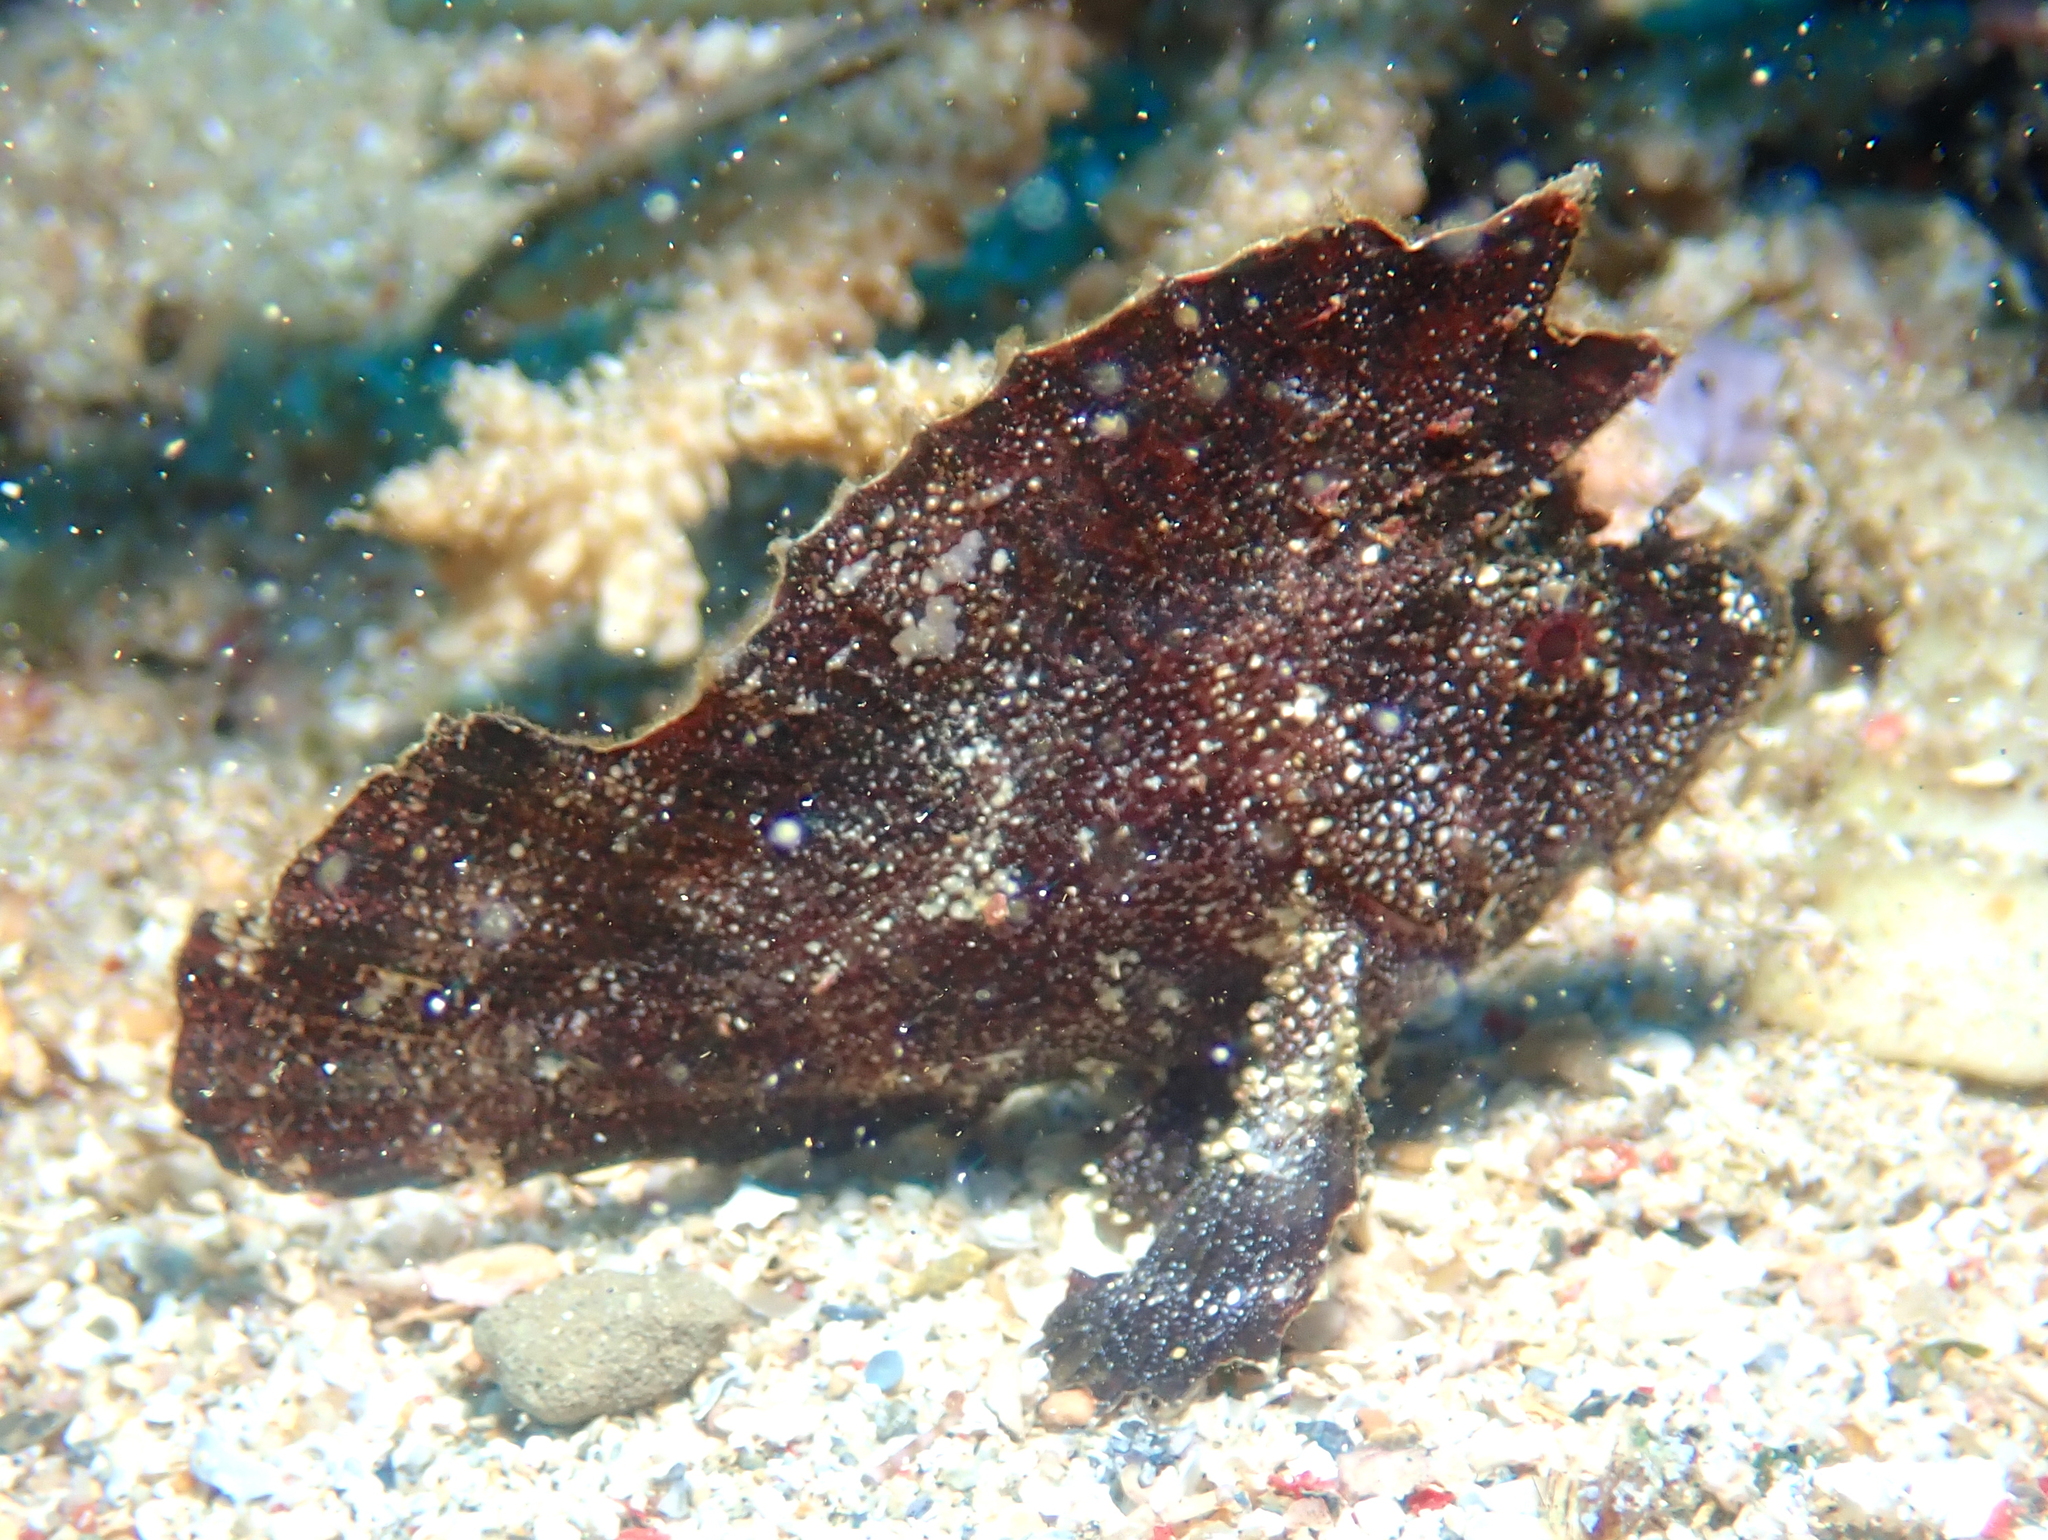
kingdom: Animalia
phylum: Chordata
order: Scorpaeniformes
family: Scorpaenidae
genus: Taenianotus
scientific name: Taenianotus triacanthus
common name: Leaf scorpionfish
